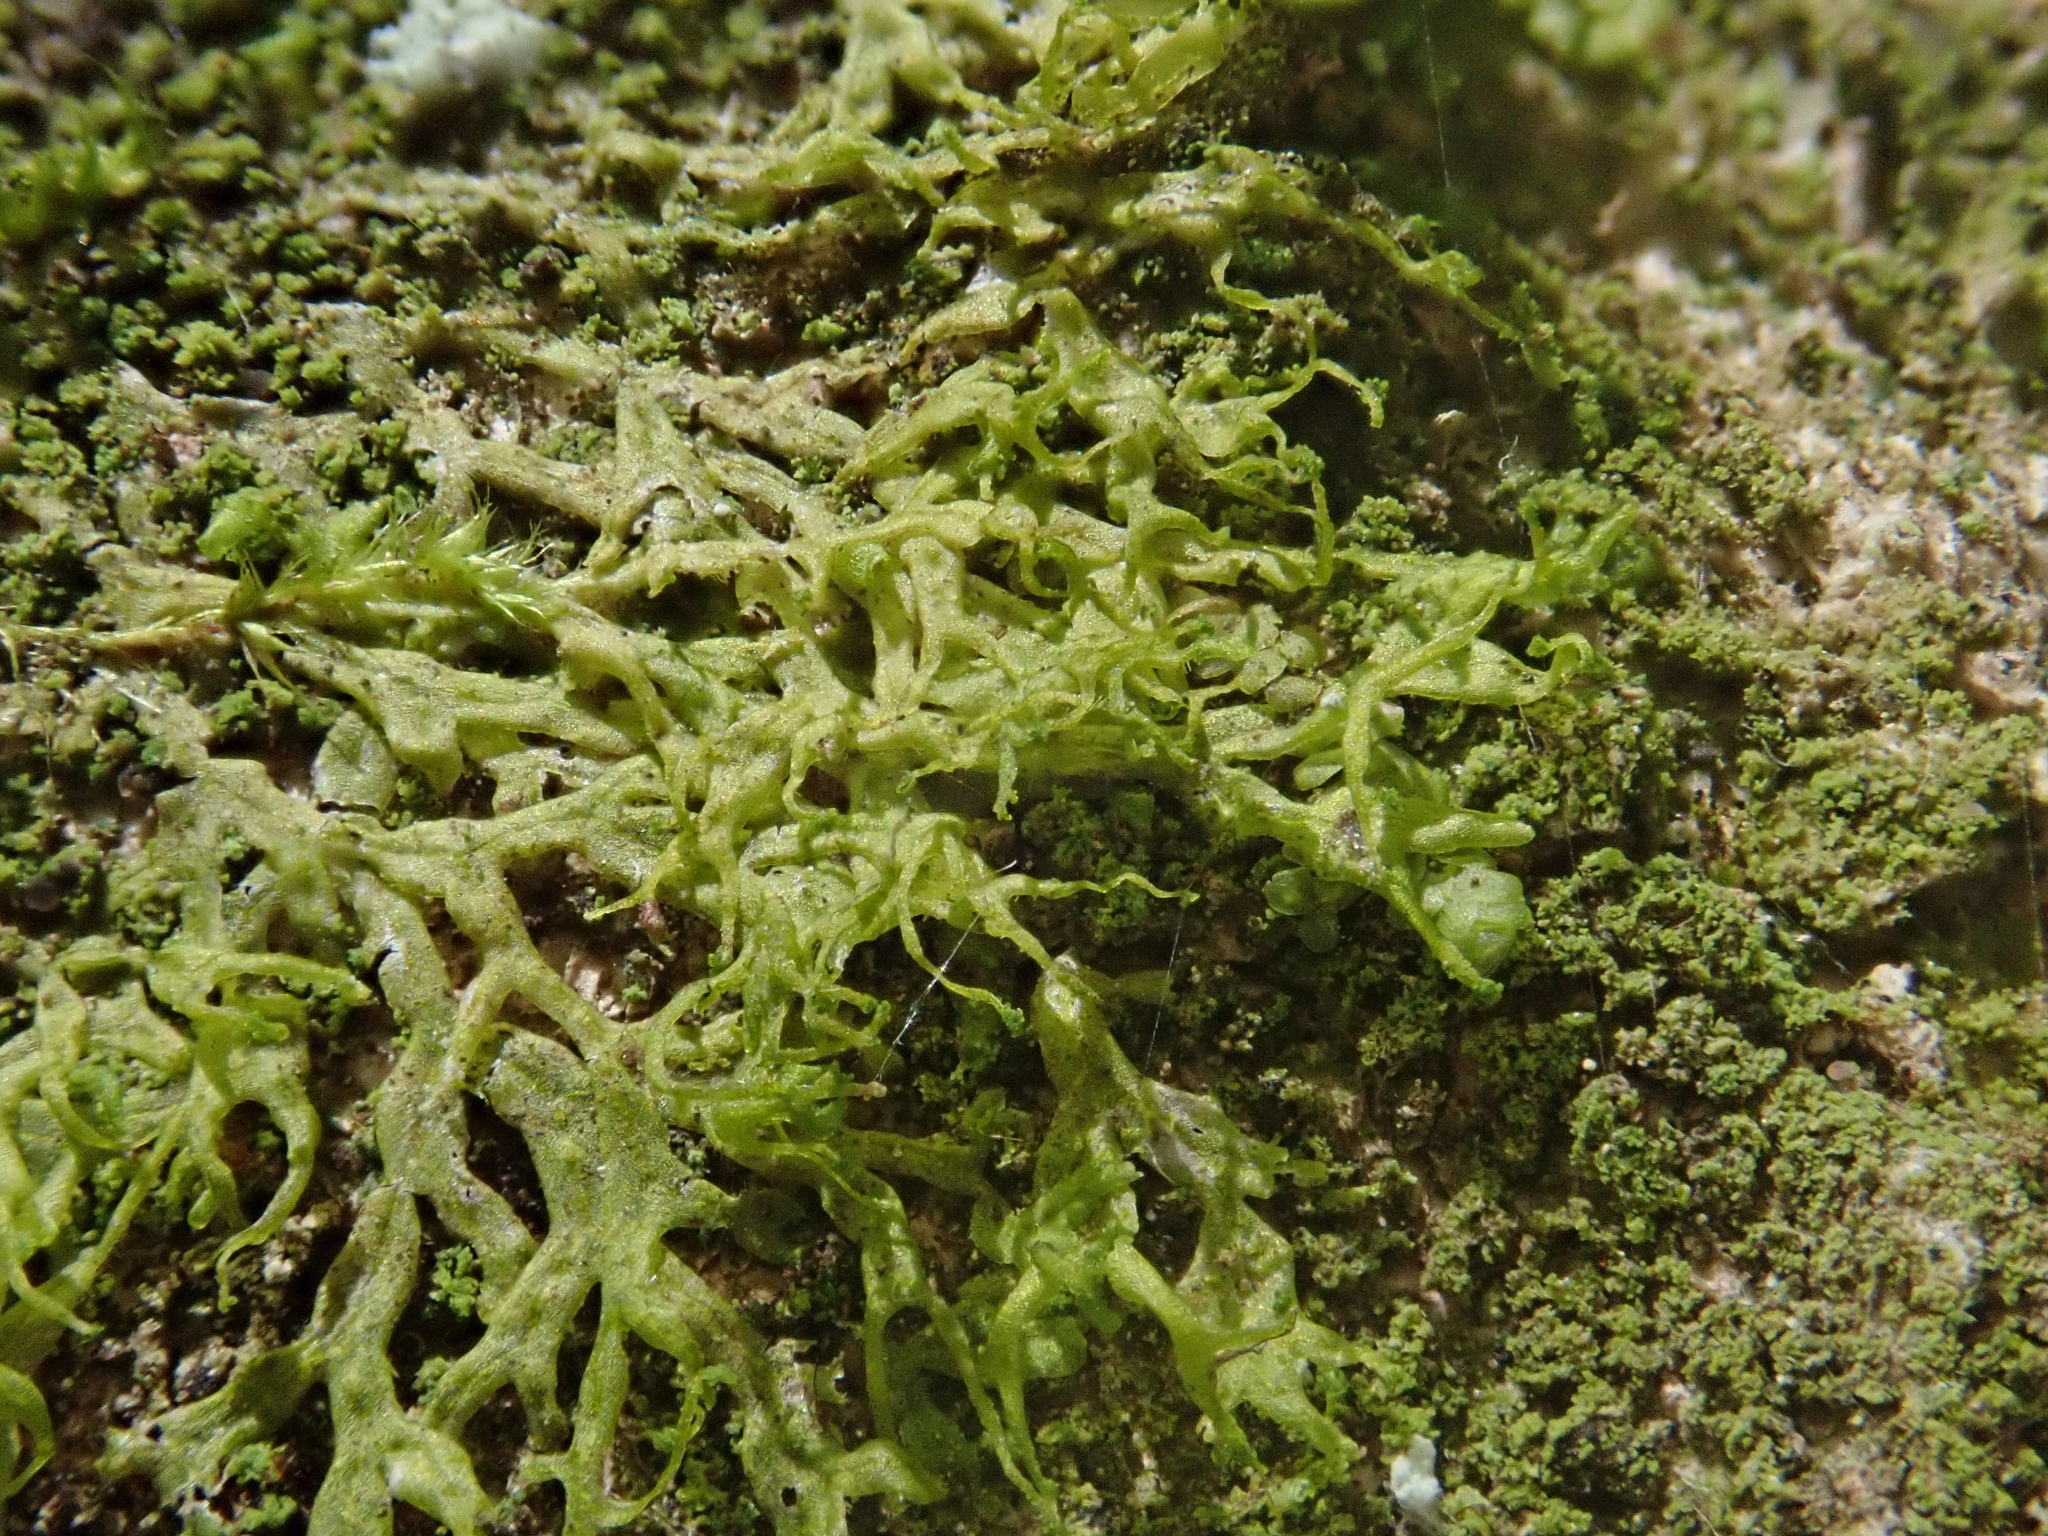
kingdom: Plantae
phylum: Marchantiophyta
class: Jungermanniopsida
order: Metzgeriales
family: Metzgeriaceae
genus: Metzgeria
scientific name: Metzgeria violacea
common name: Blueish veilwort
